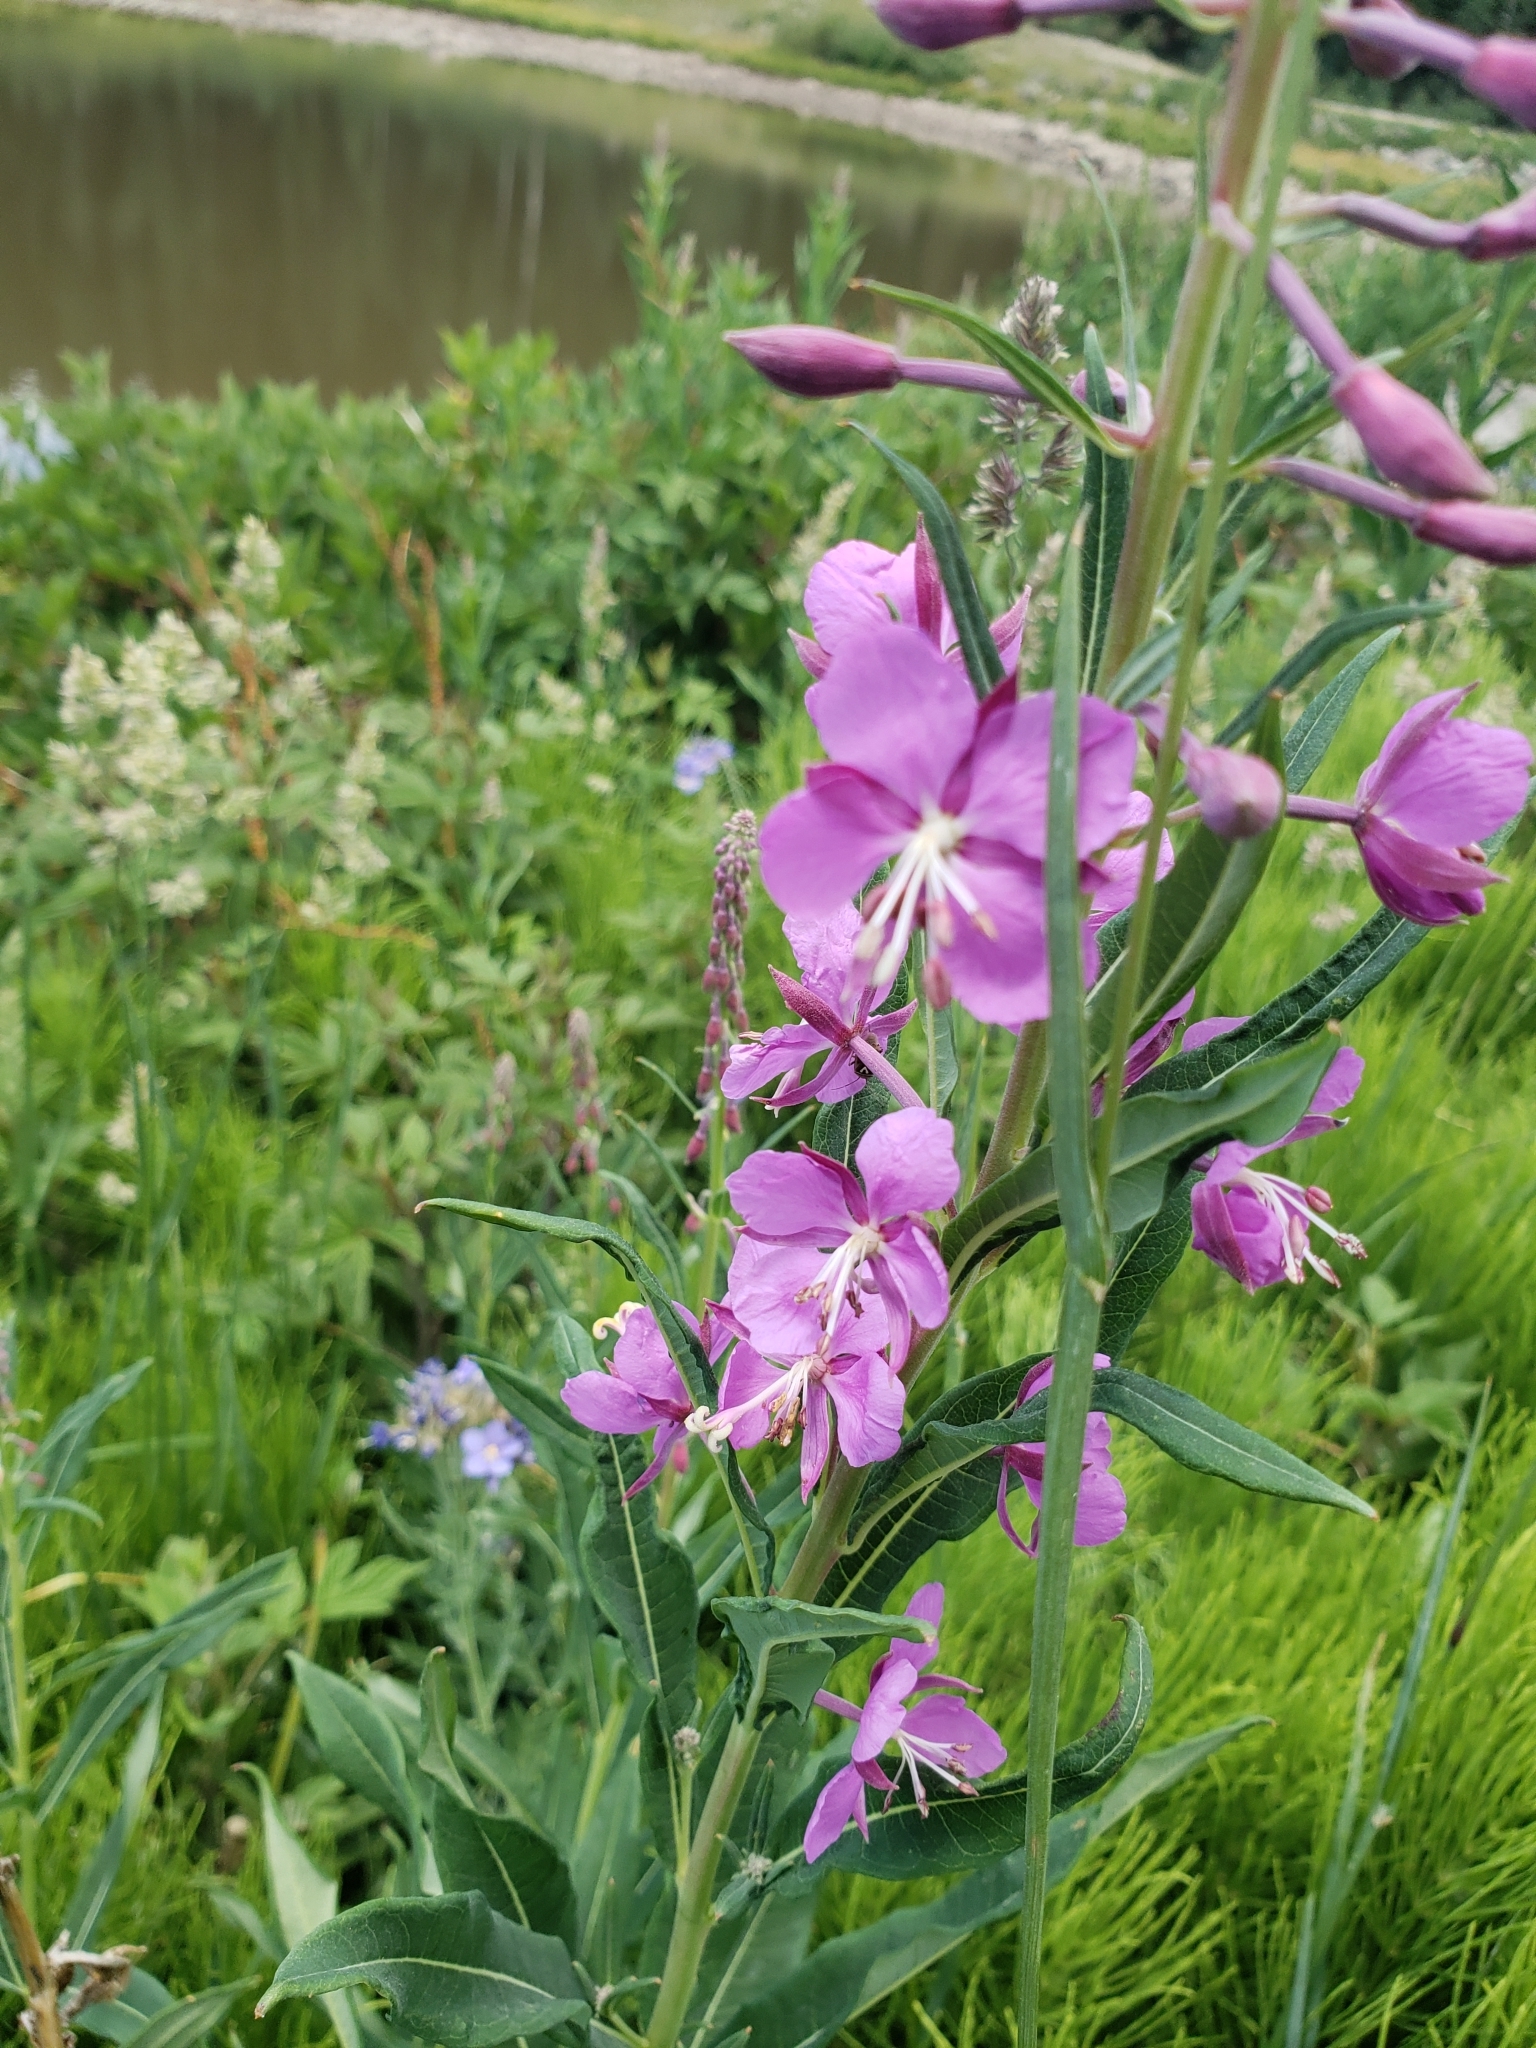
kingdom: Plantae
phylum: Tracheophyta
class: Magnoliopsida
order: Myrtales
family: Onagraceae
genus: Chamaenerion
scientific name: Chamaenerion angustifolium
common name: Fireweed
